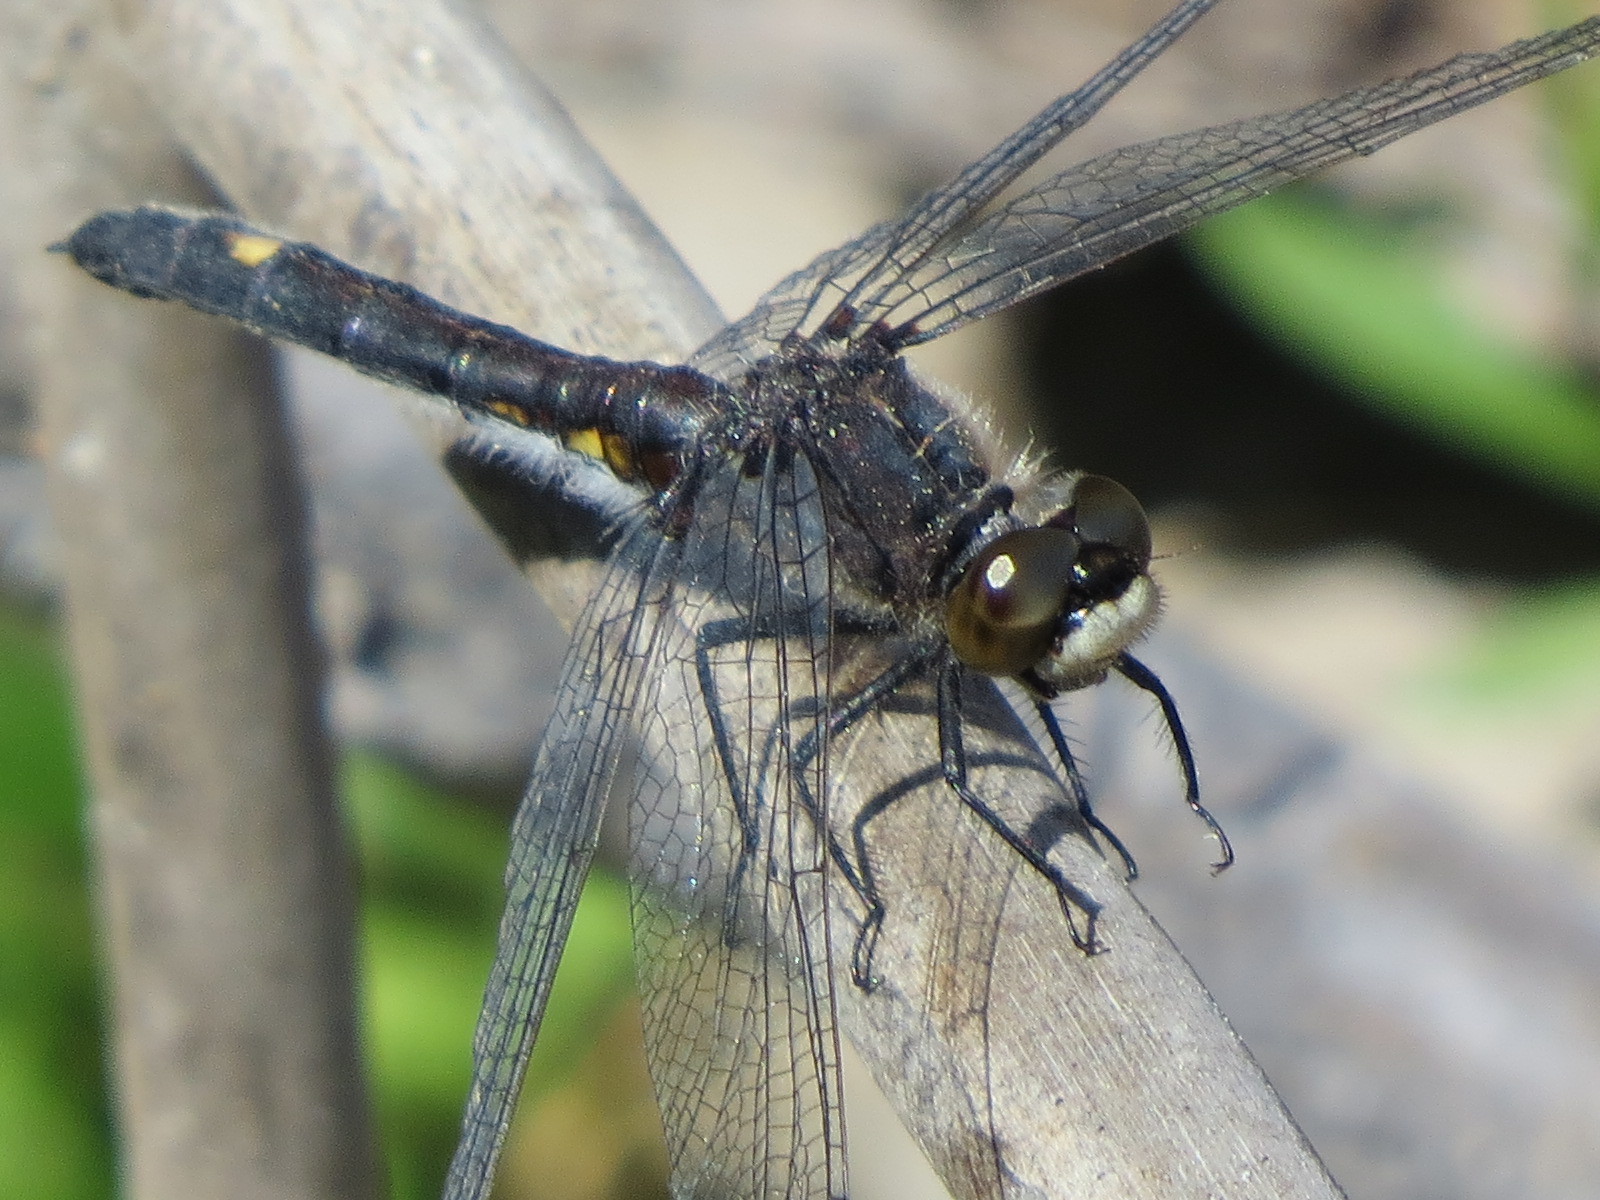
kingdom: Animalia
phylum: Arthropoda
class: Insecta
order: Odonata
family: Libellulidae
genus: Leucorrhinia
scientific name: Leucorrhinia intacta
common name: Dot-tailed whiteface
